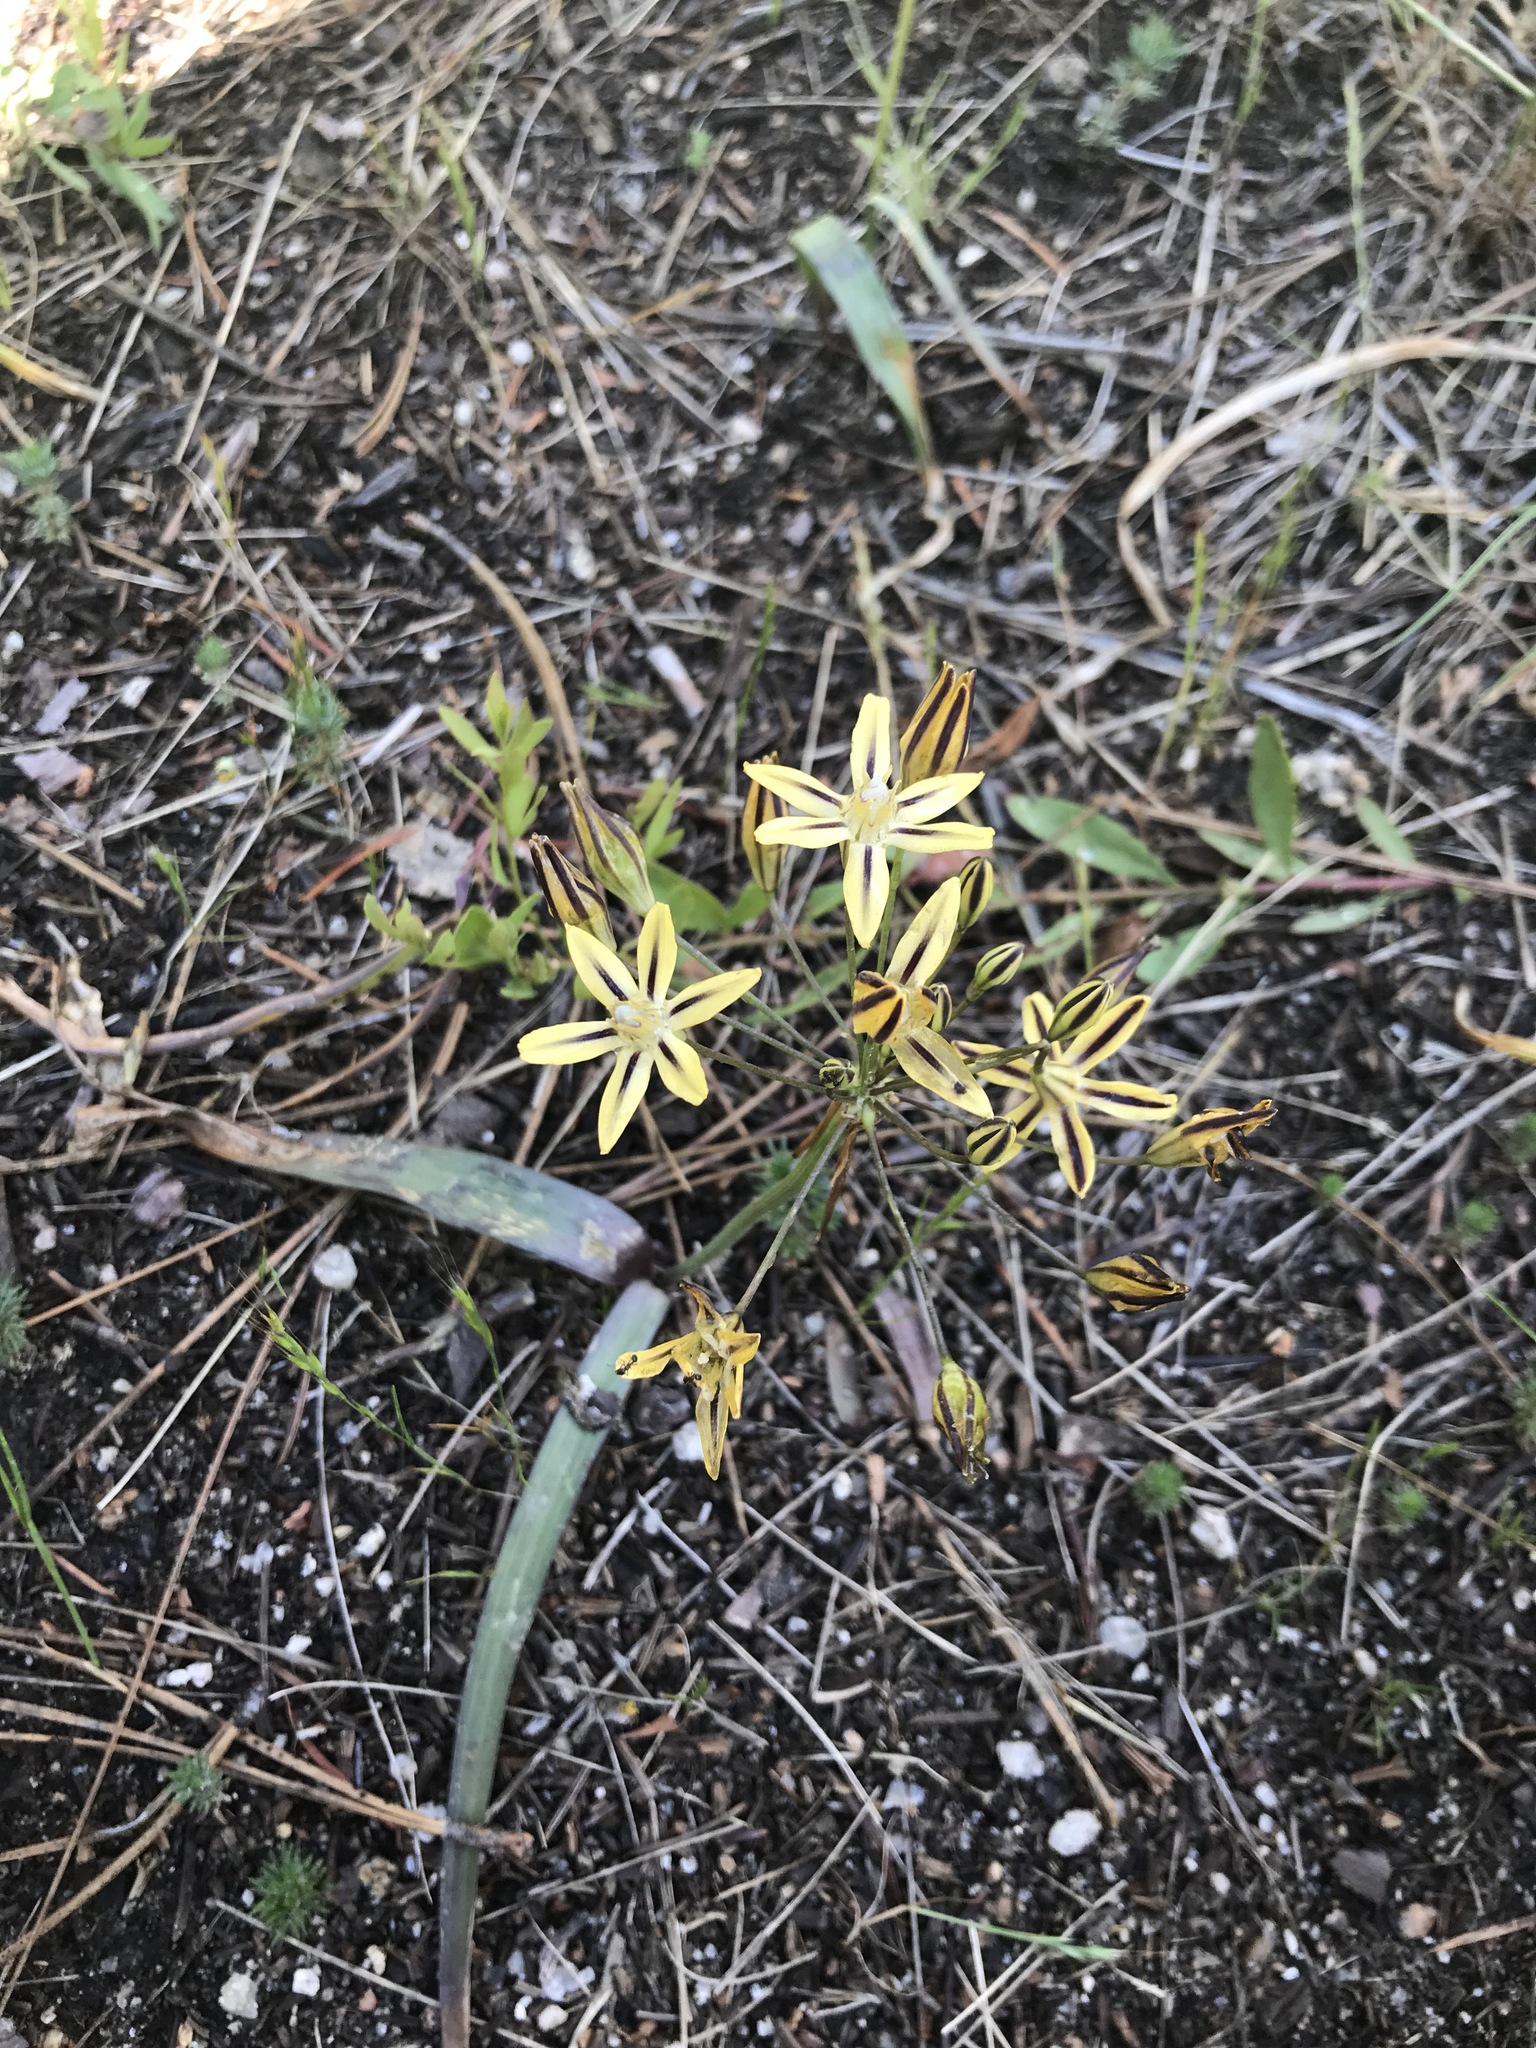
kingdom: Plantae
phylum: Tracheophyta
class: Liliopsida
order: Asparagales
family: Asparagaceae
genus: Triteleia
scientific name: Triteleia ixioides
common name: Yellow-brodiaea
